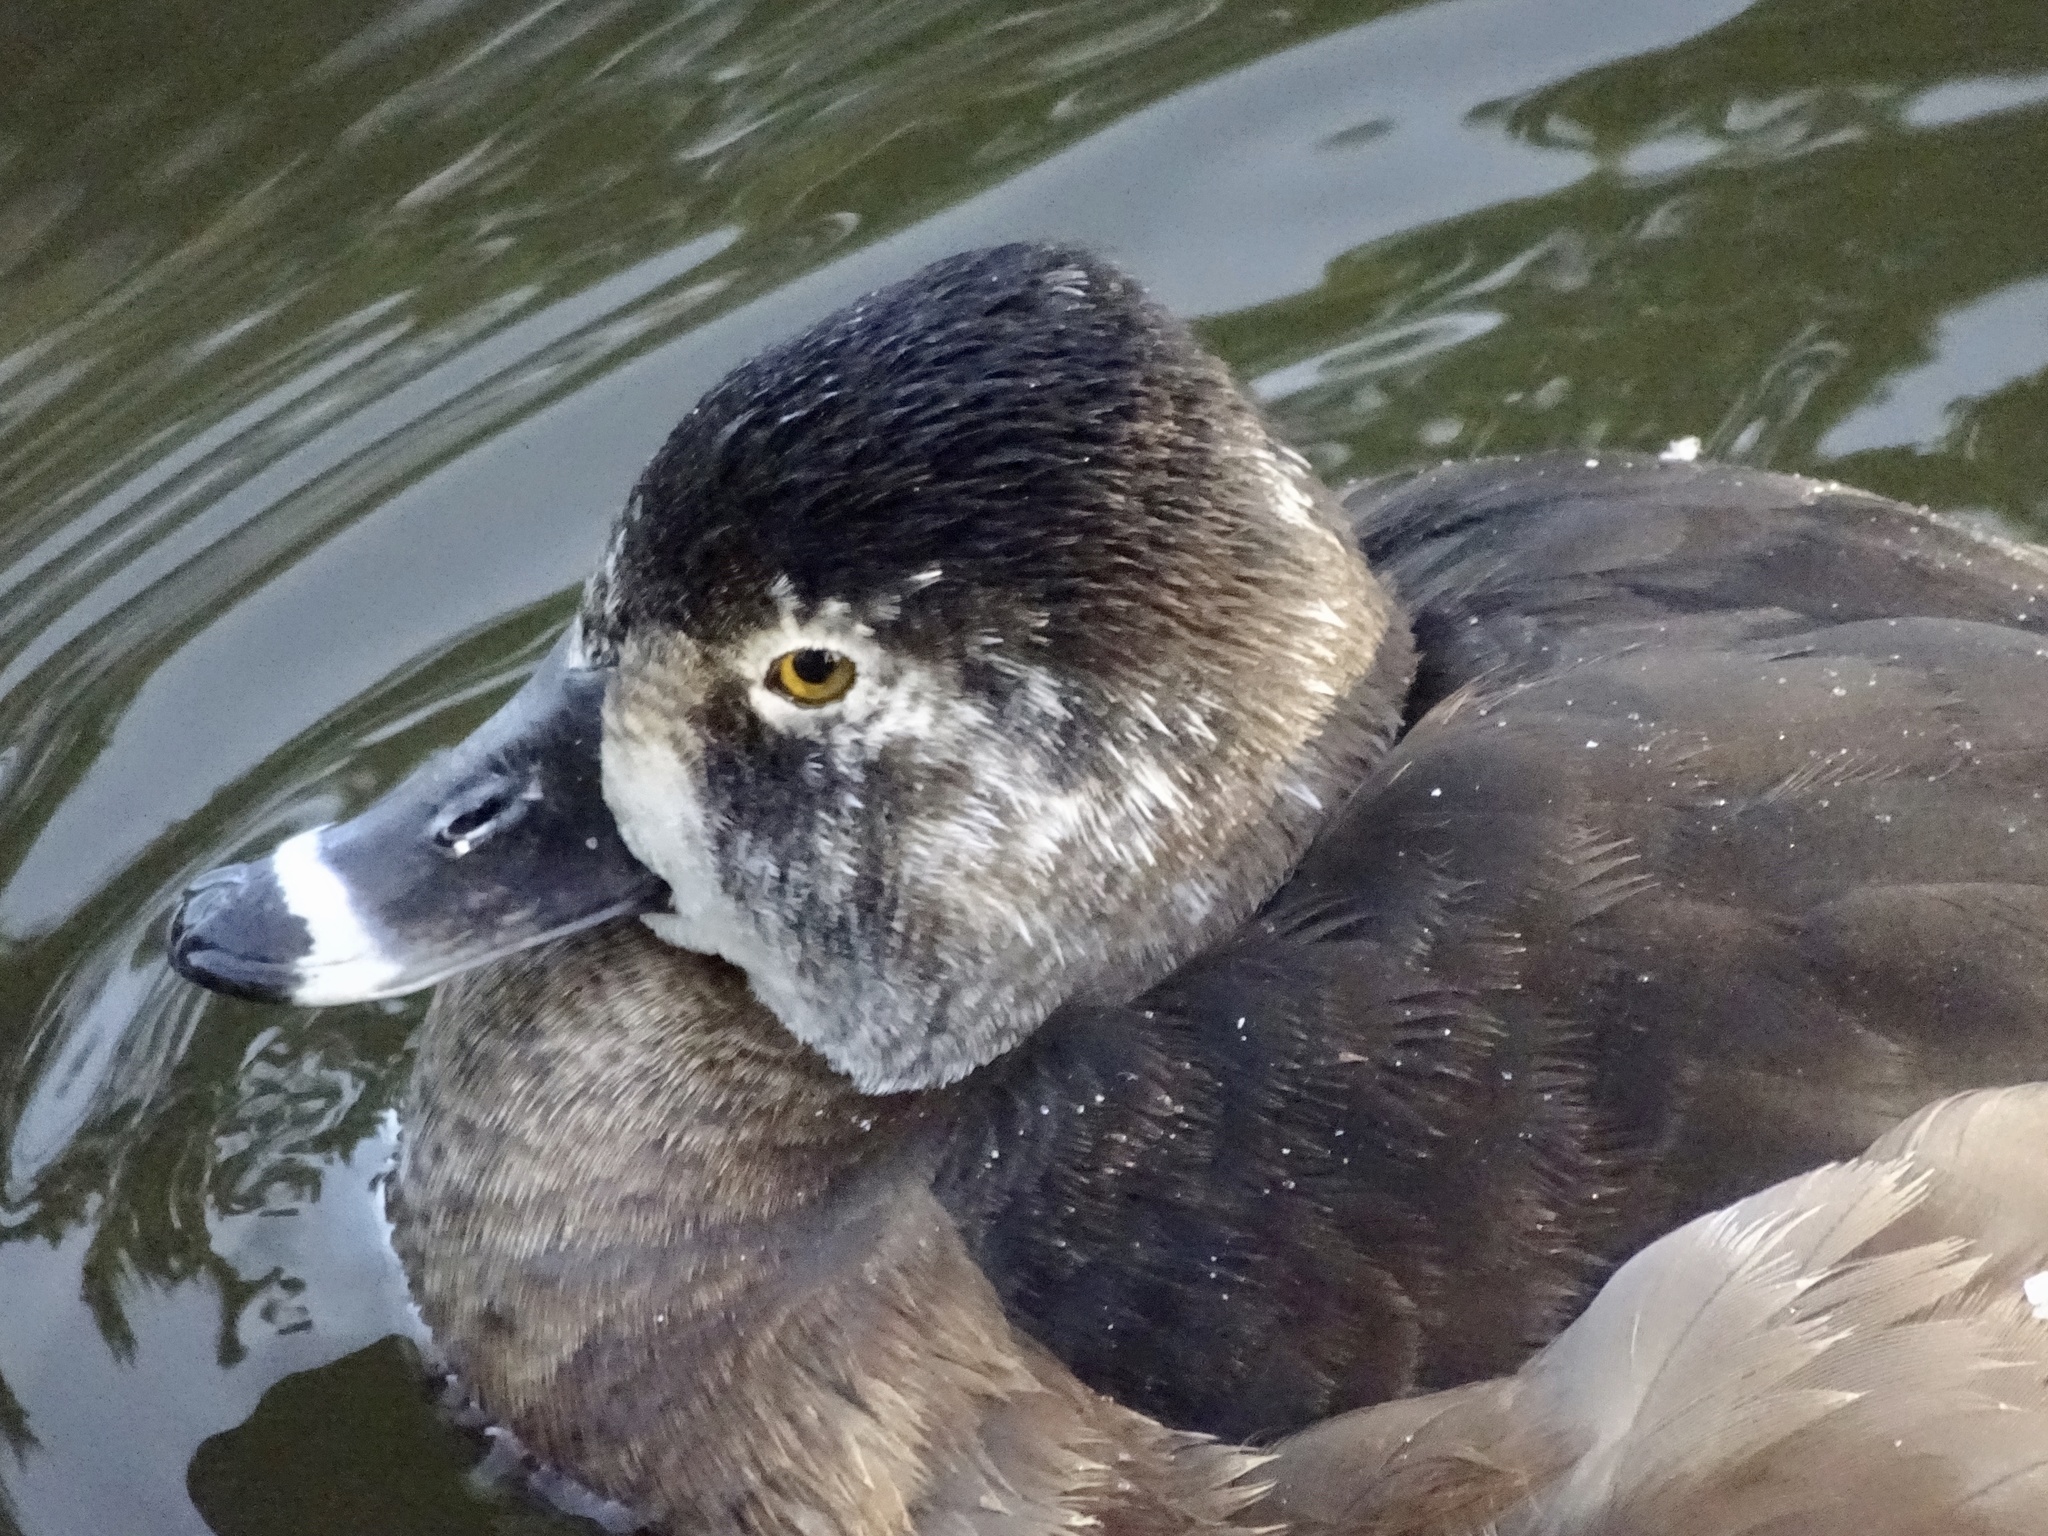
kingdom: Animalia
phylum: Chordata
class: Aves
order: Anseriformes
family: Anatidae
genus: Aythya
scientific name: Aythya collaris
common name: Ring-necked duck
